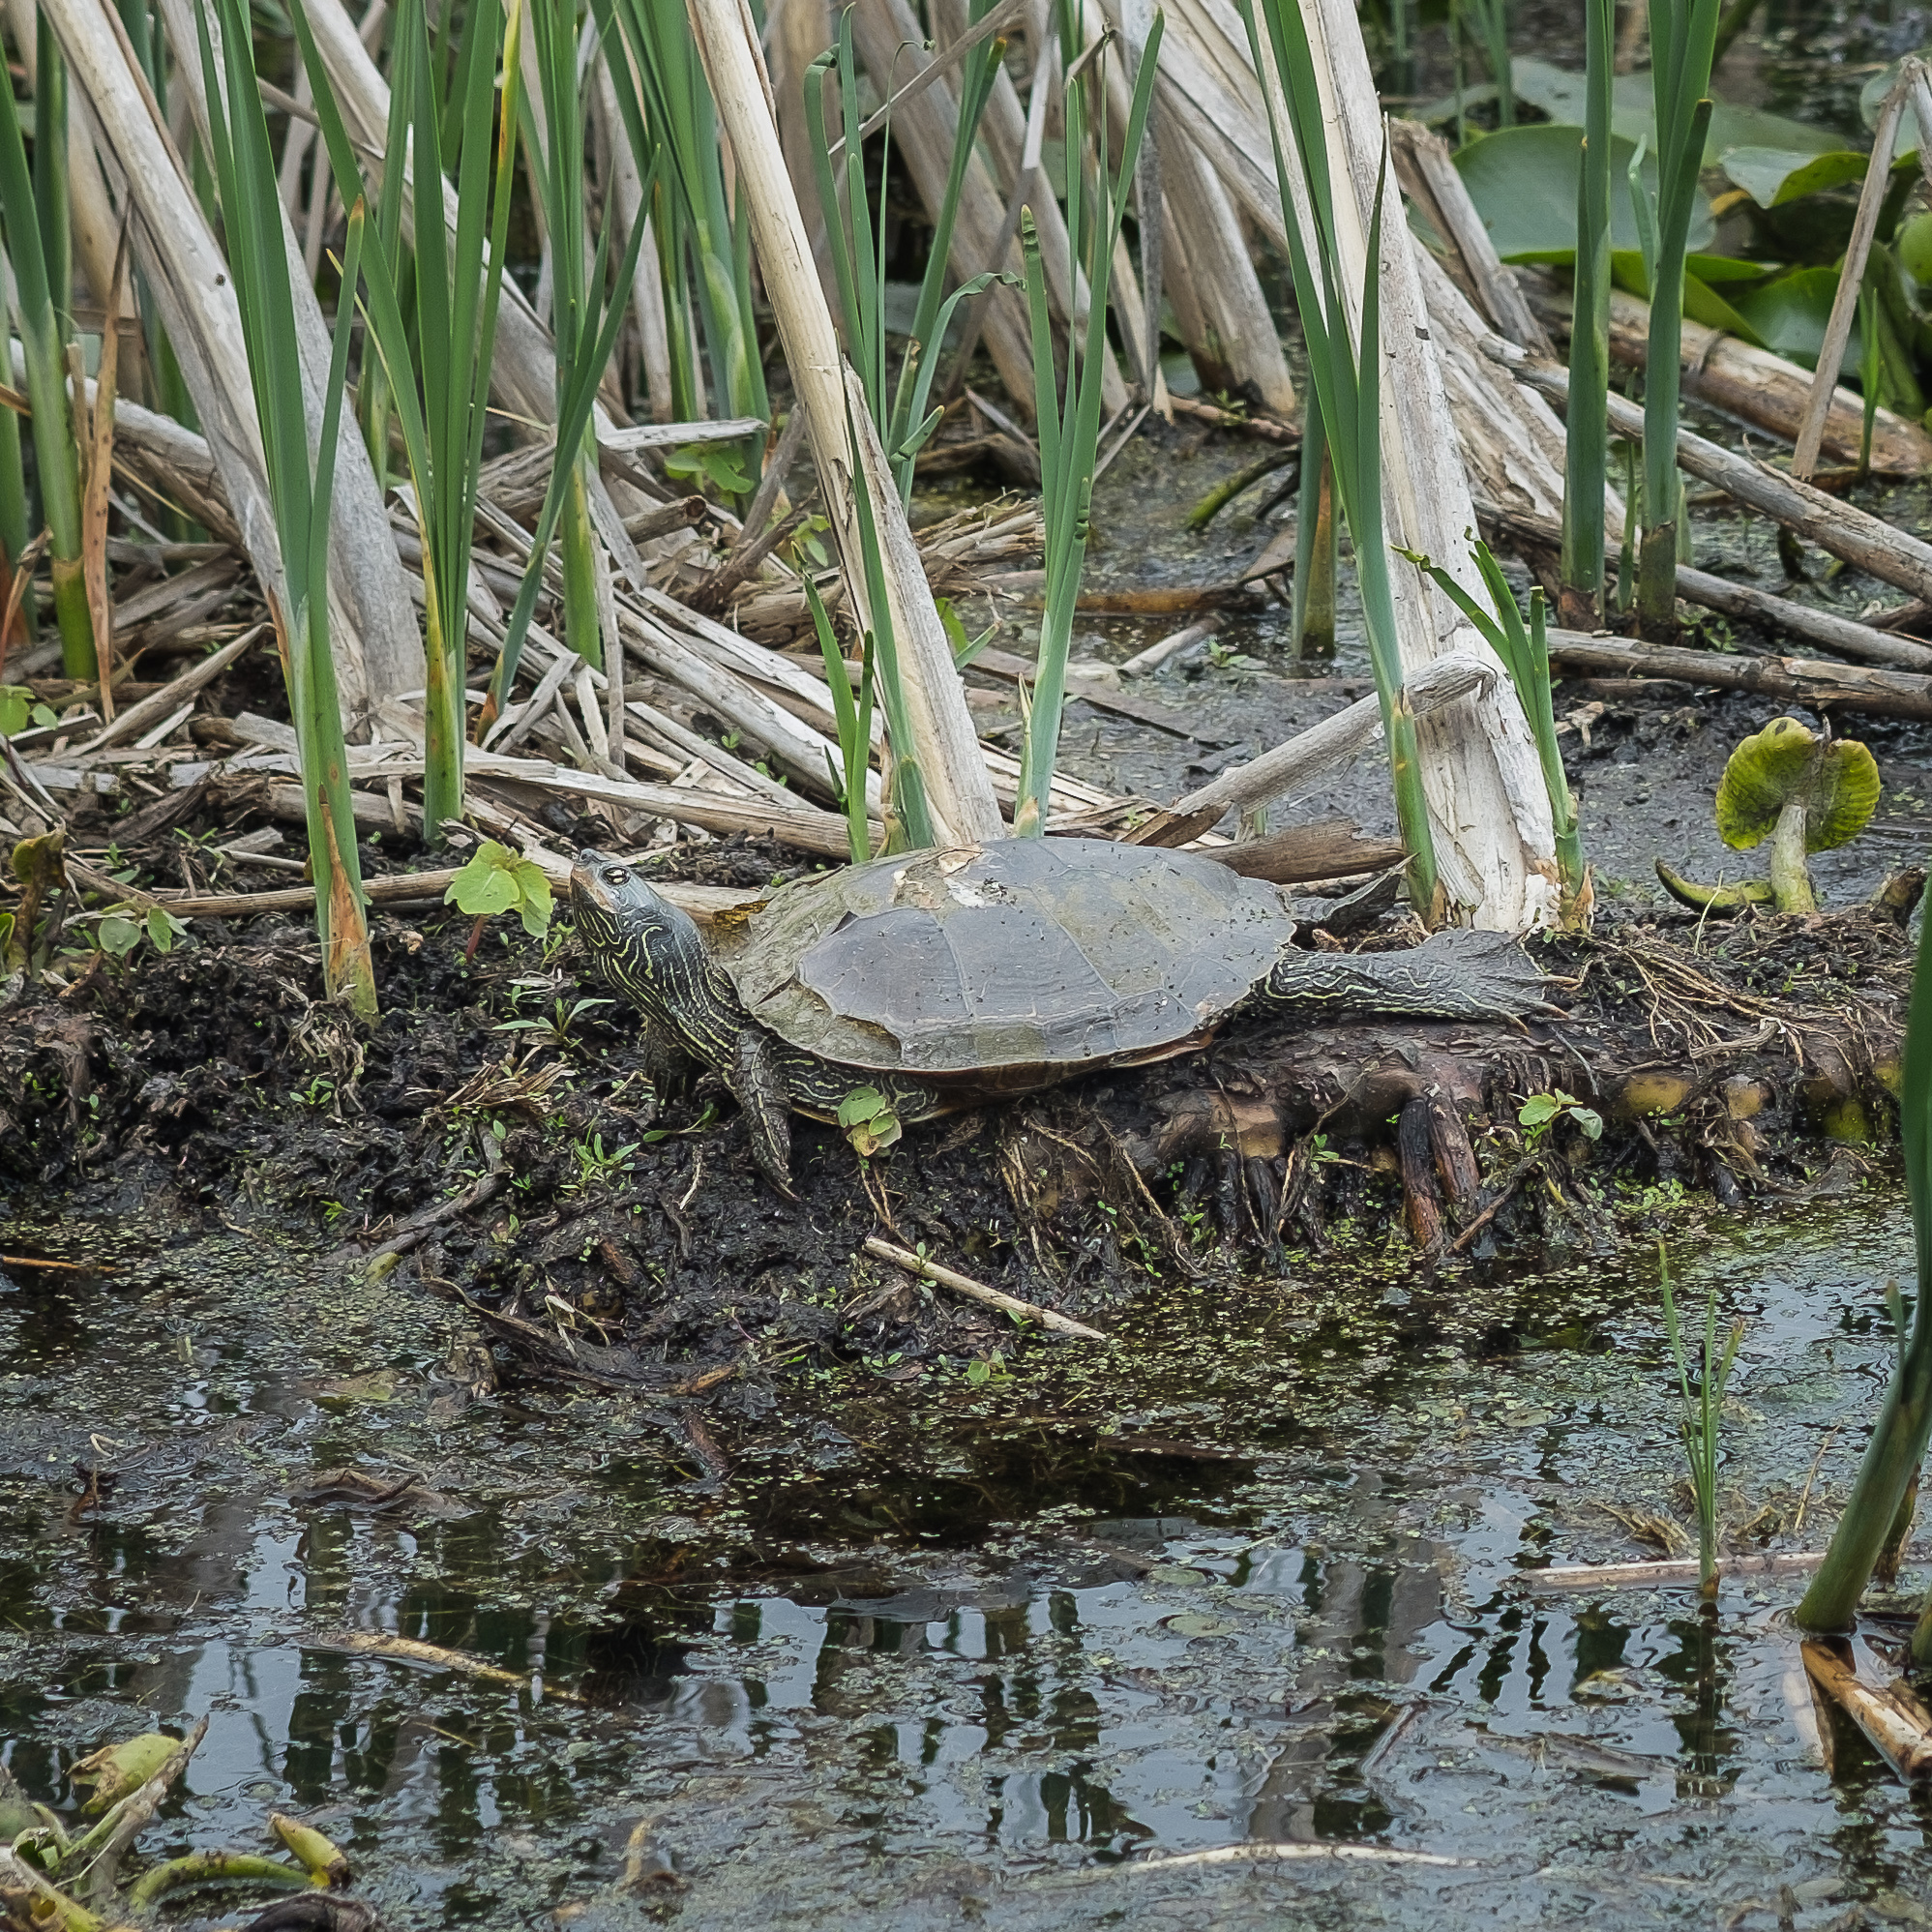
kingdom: Animalia
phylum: Chordata
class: Testudines
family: Emydidae
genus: Graptemys
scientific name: Graptemys geographica
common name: Common map turtle
